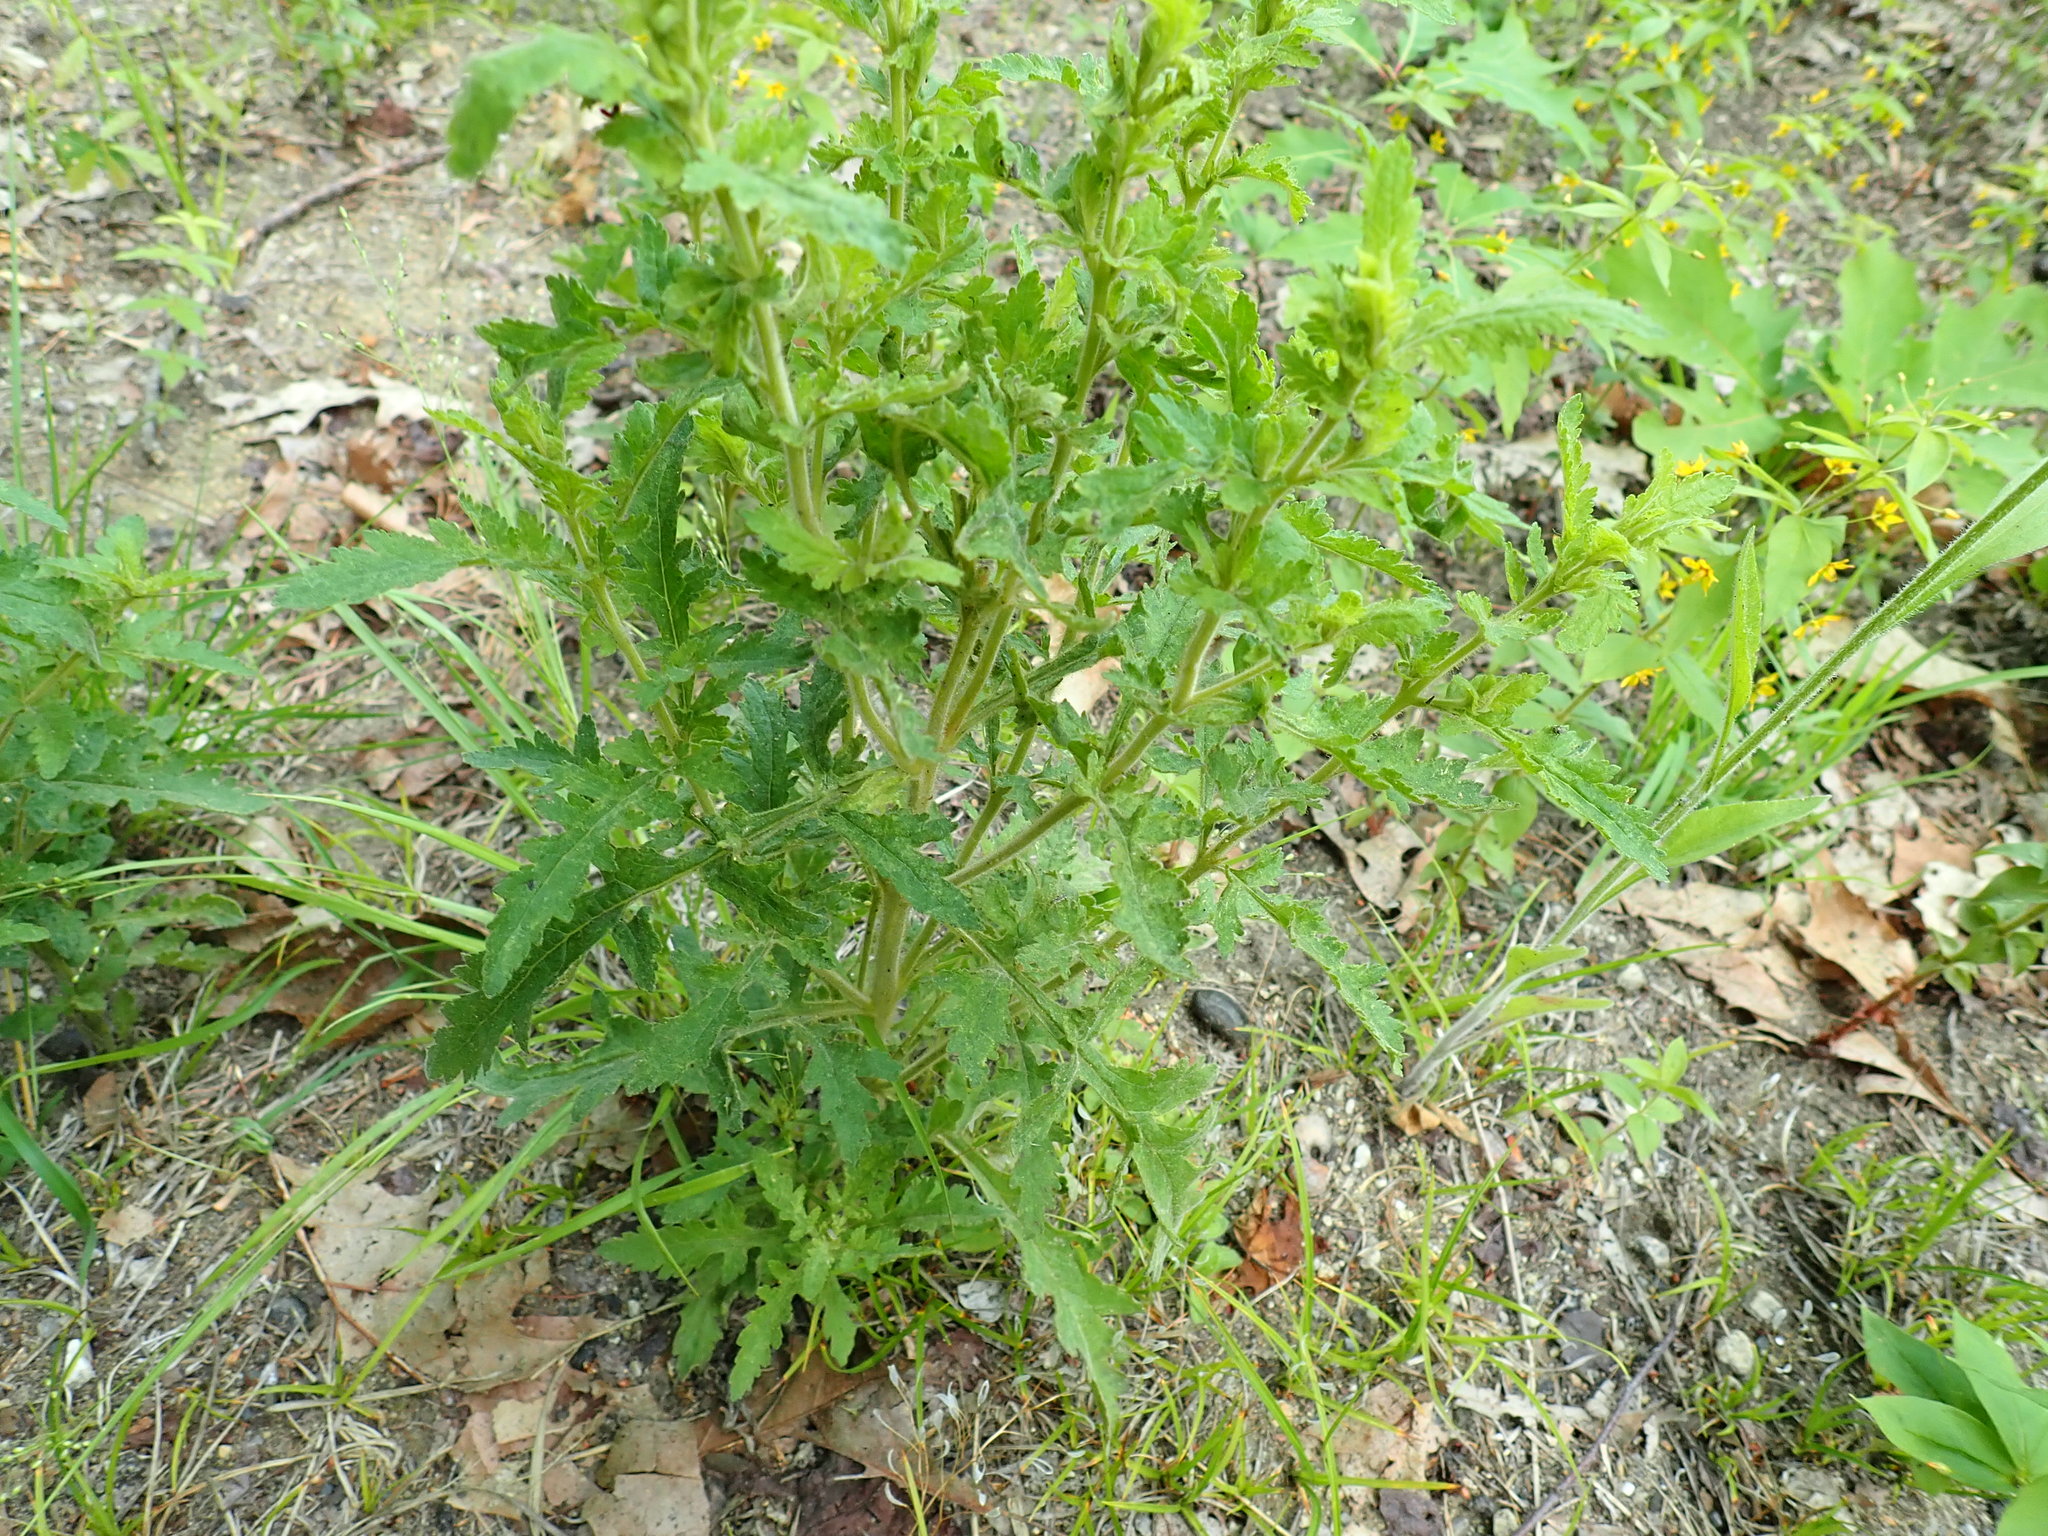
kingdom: Plantae
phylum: Tracheophyta
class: Magnoliopsida
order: Lamiales
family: Orobanchaceae
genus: Aureolaria
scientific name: Aureolaria pedicularia
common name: Annual false foxglove
